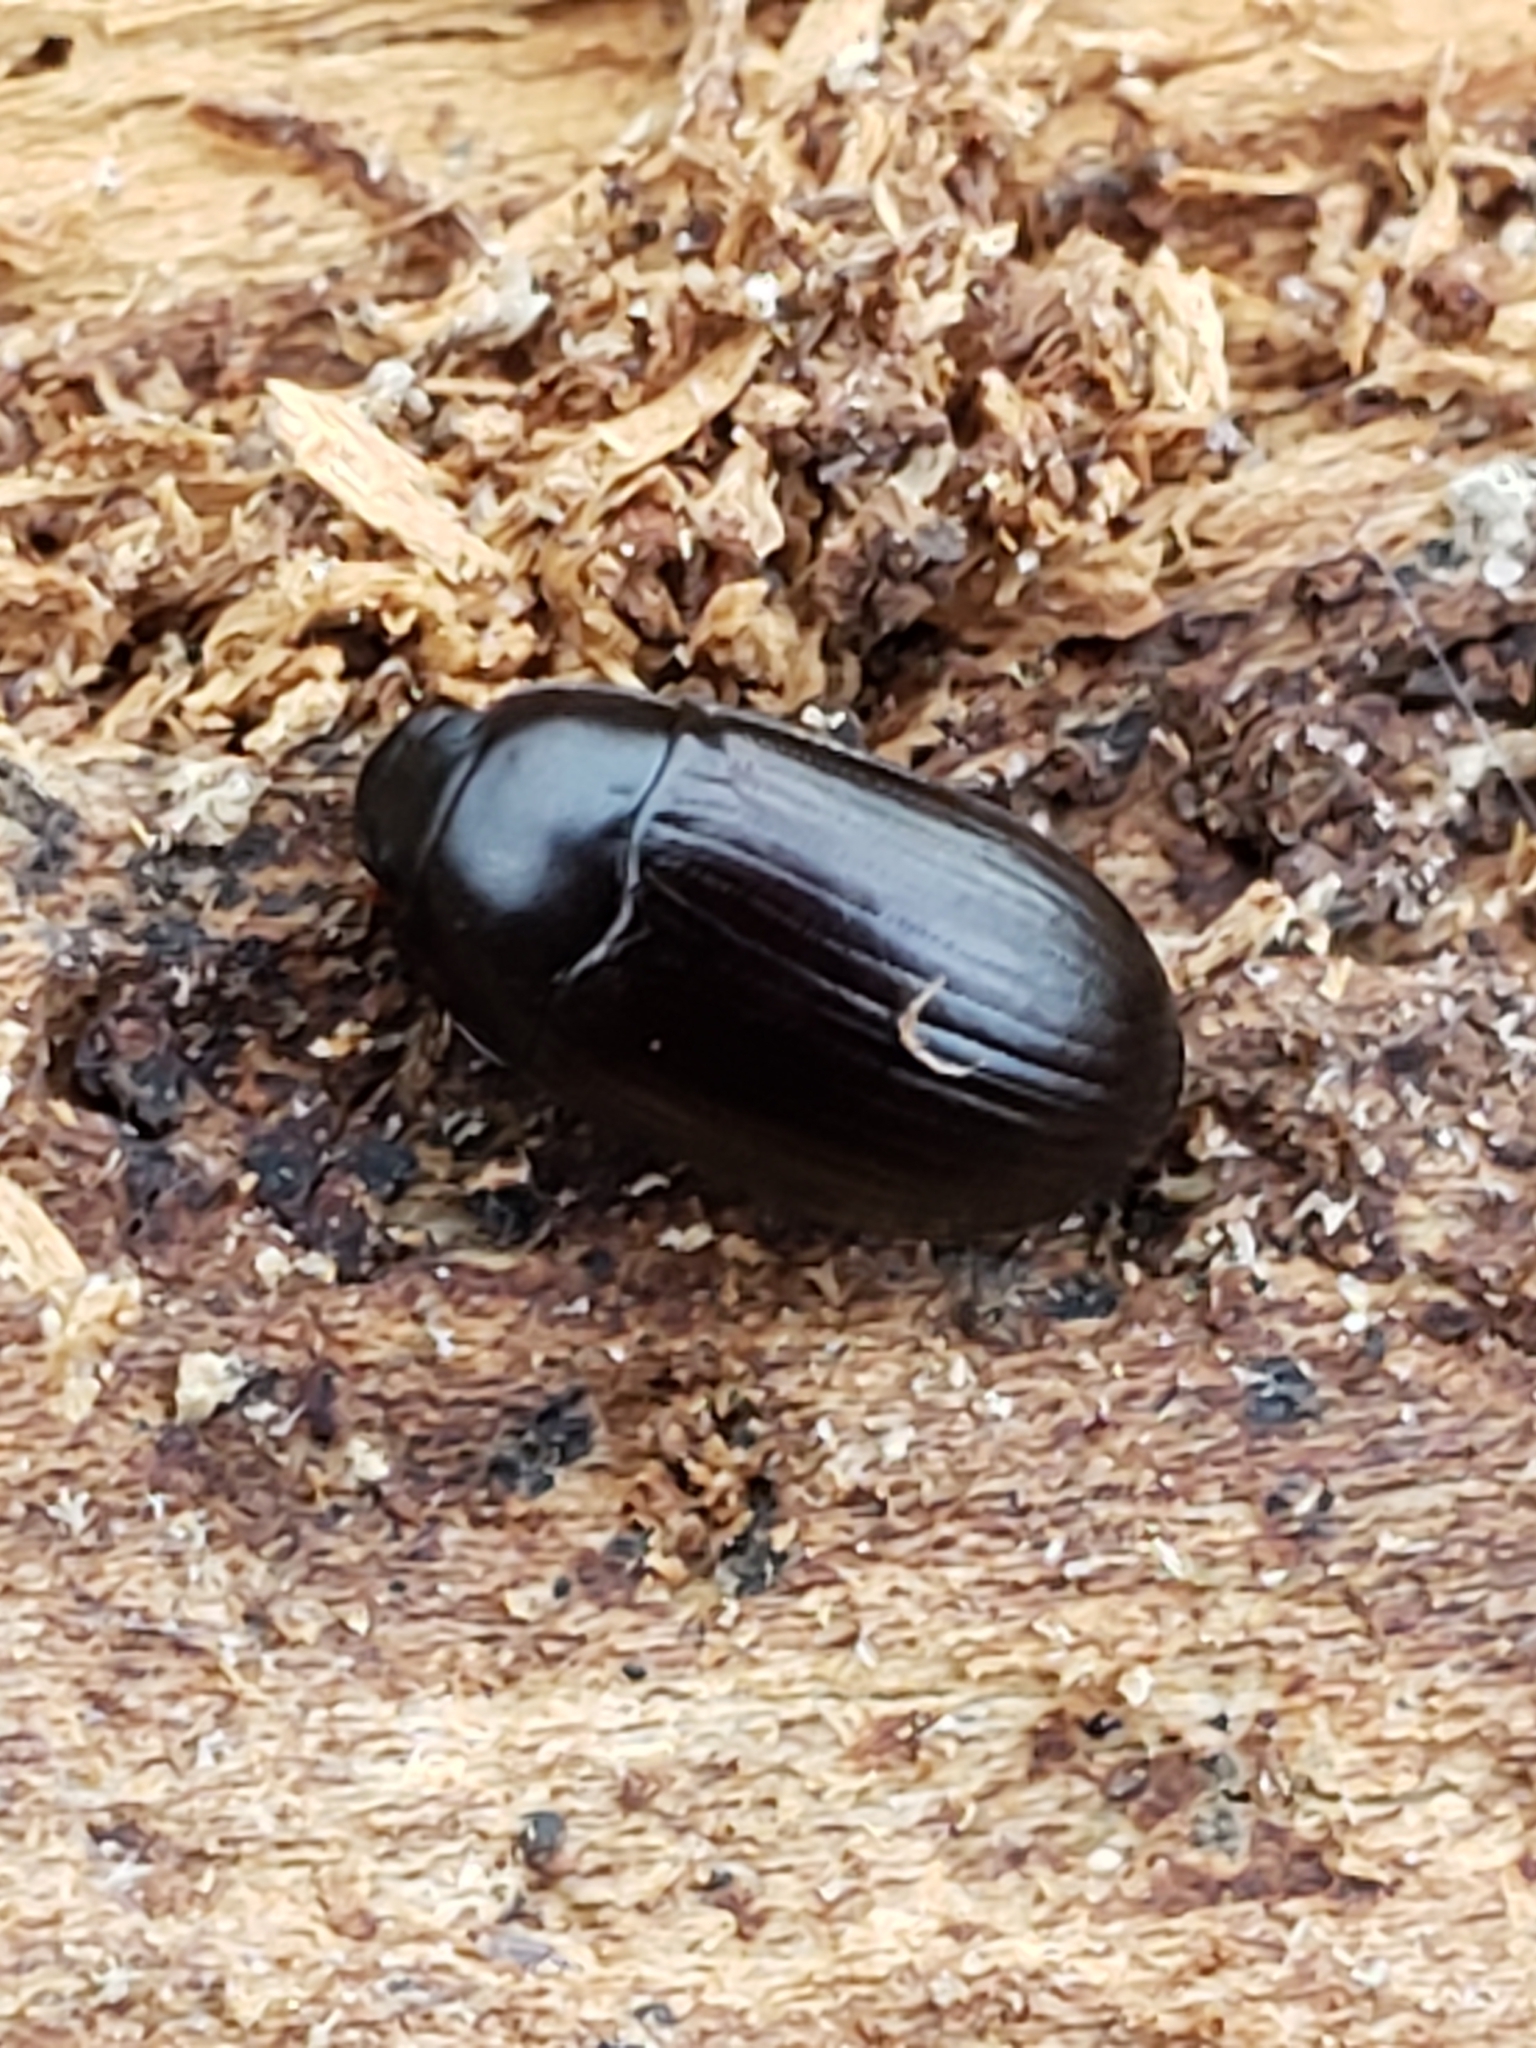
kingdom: Animalia
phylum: Arthropoda
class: Insecta
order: Coleoptera
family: Tenebrionidae
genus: Platydema
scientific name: Platydema americana
